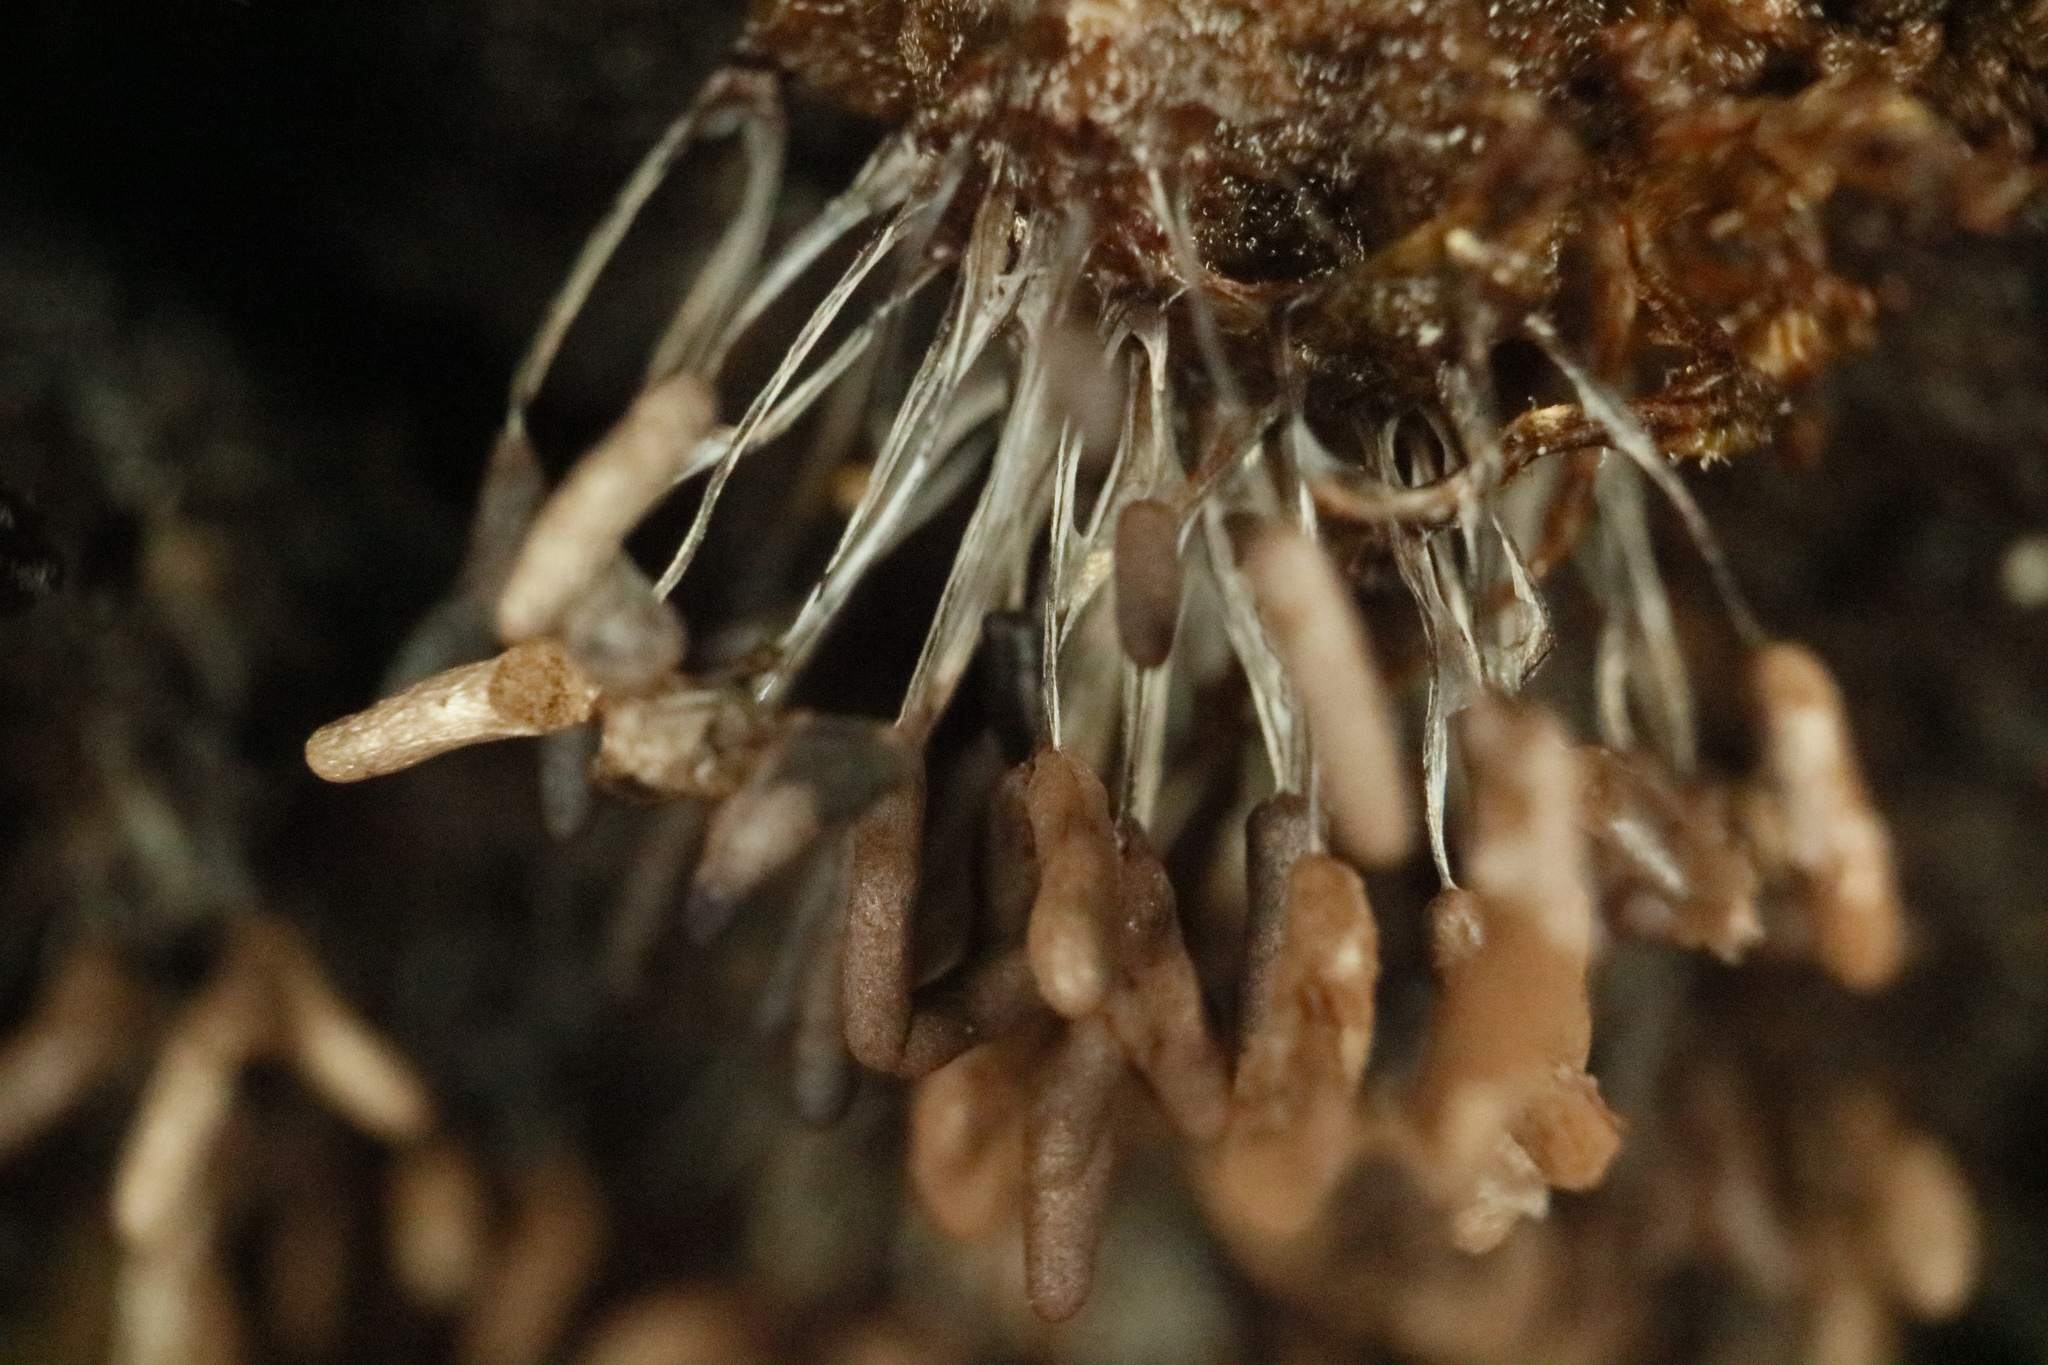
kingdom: Protozoa
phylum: Mycetozoa
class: Myxomycetes
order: Stemonitidales
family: Stemonitidaceae
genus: Stemonitopsis
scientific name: Stemonitopsis typhina
